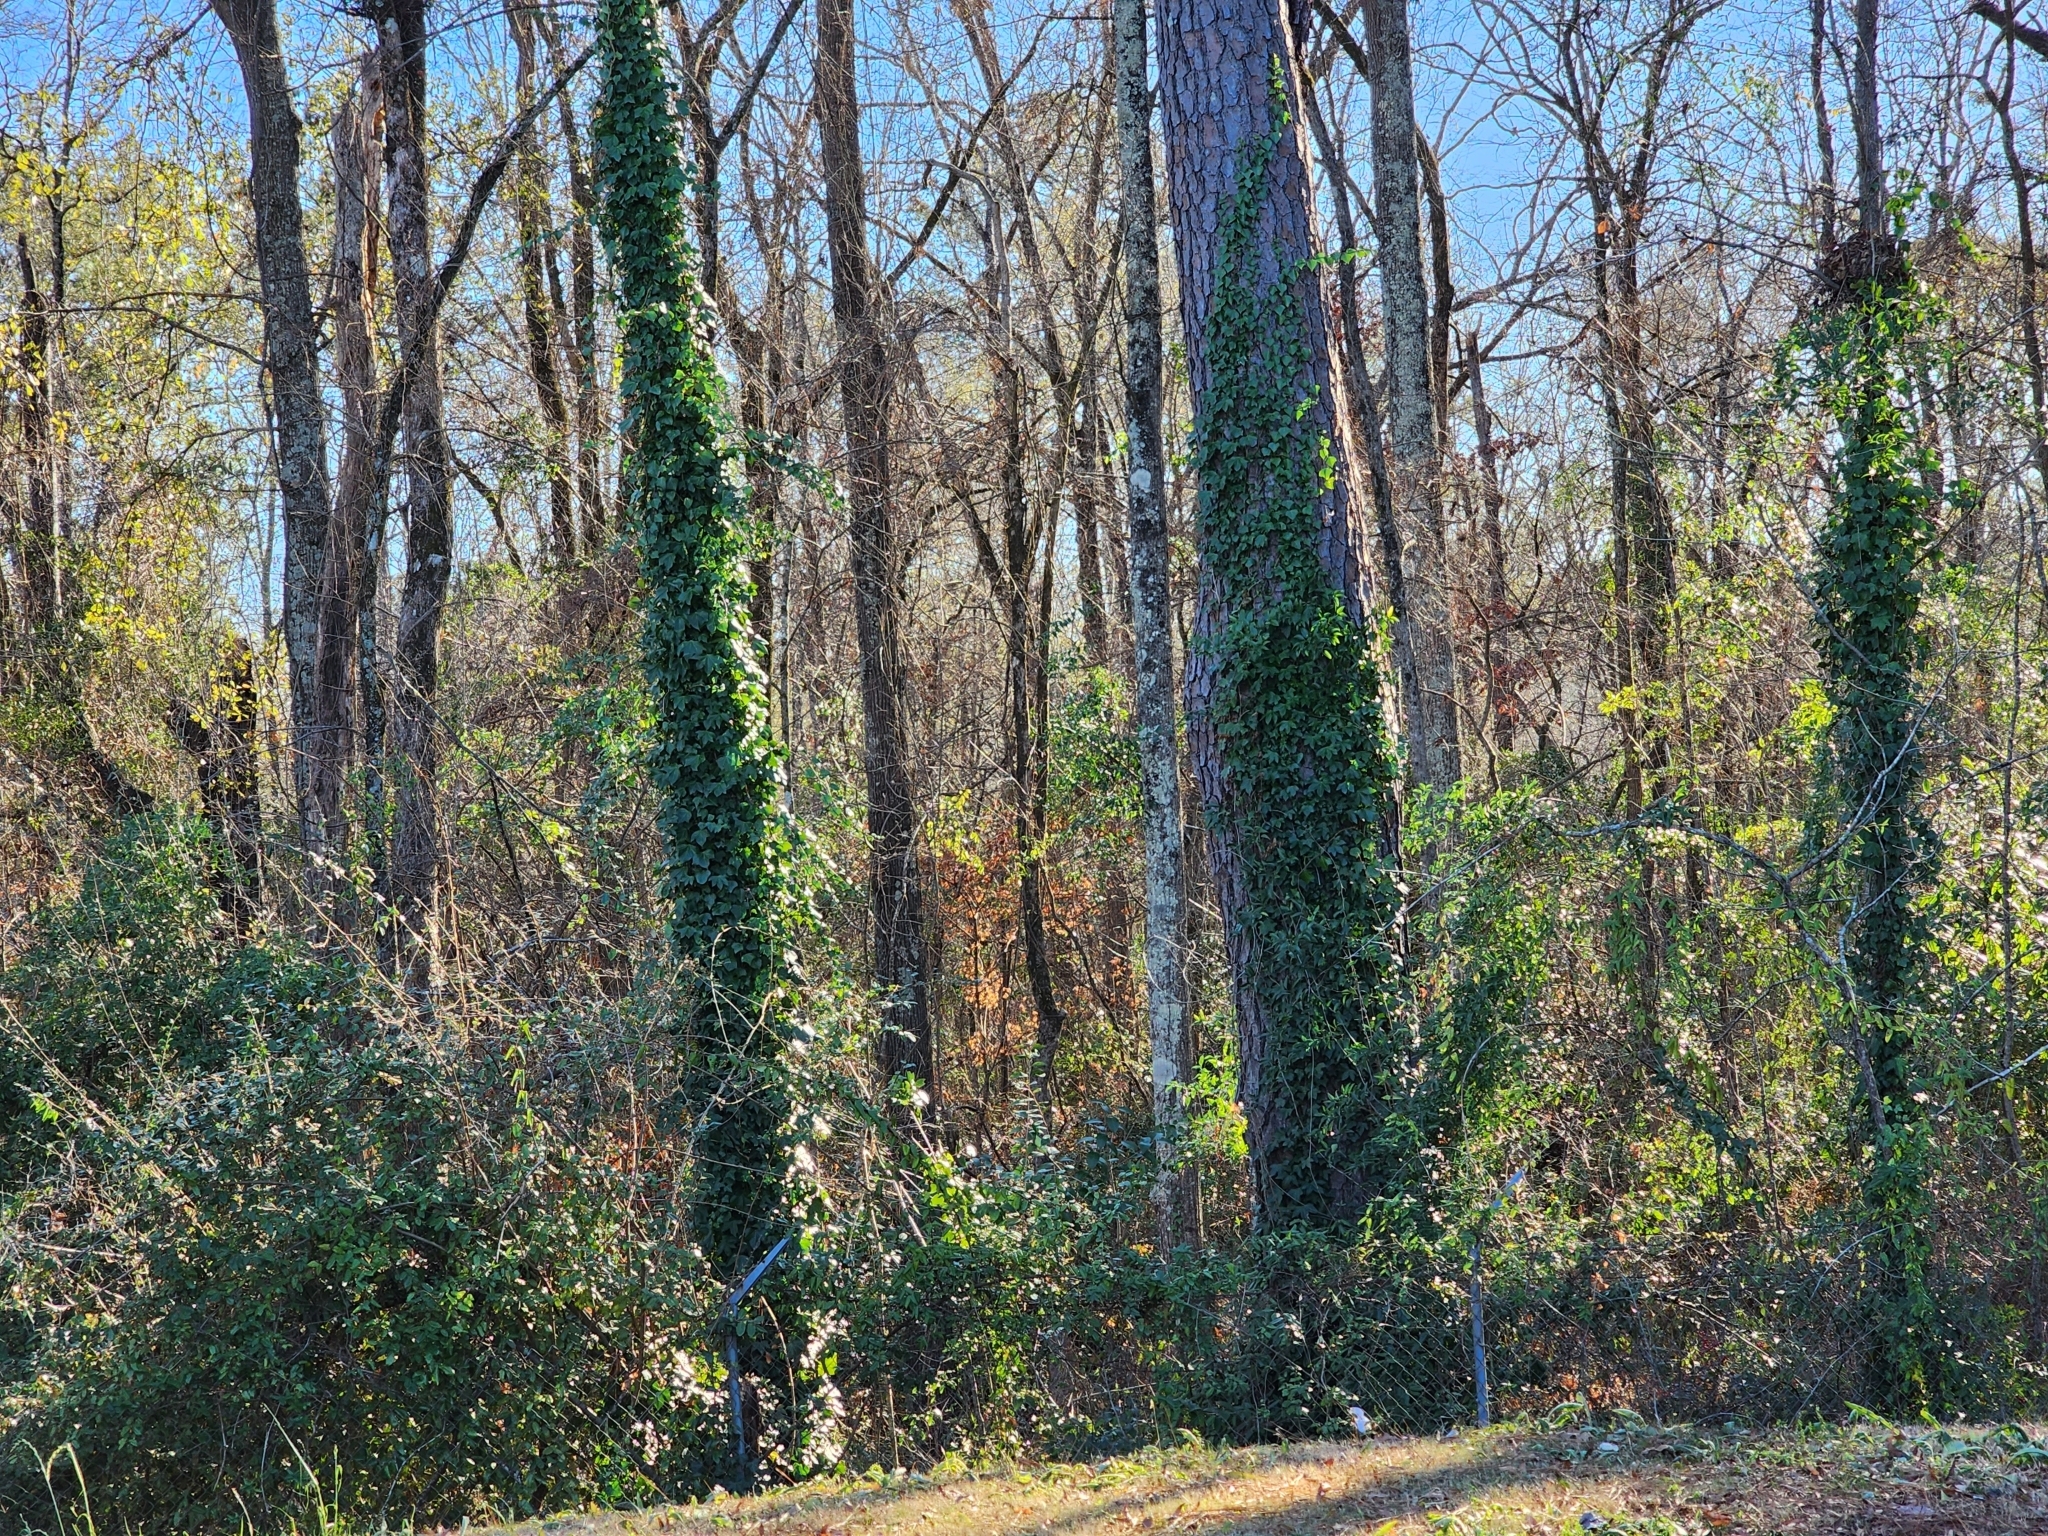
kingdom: Plantae
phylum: Tracheophyta
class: Magnoliopsida
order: Apiales
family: Araliaceae
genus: Hedera
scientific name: Hedera hibernica
